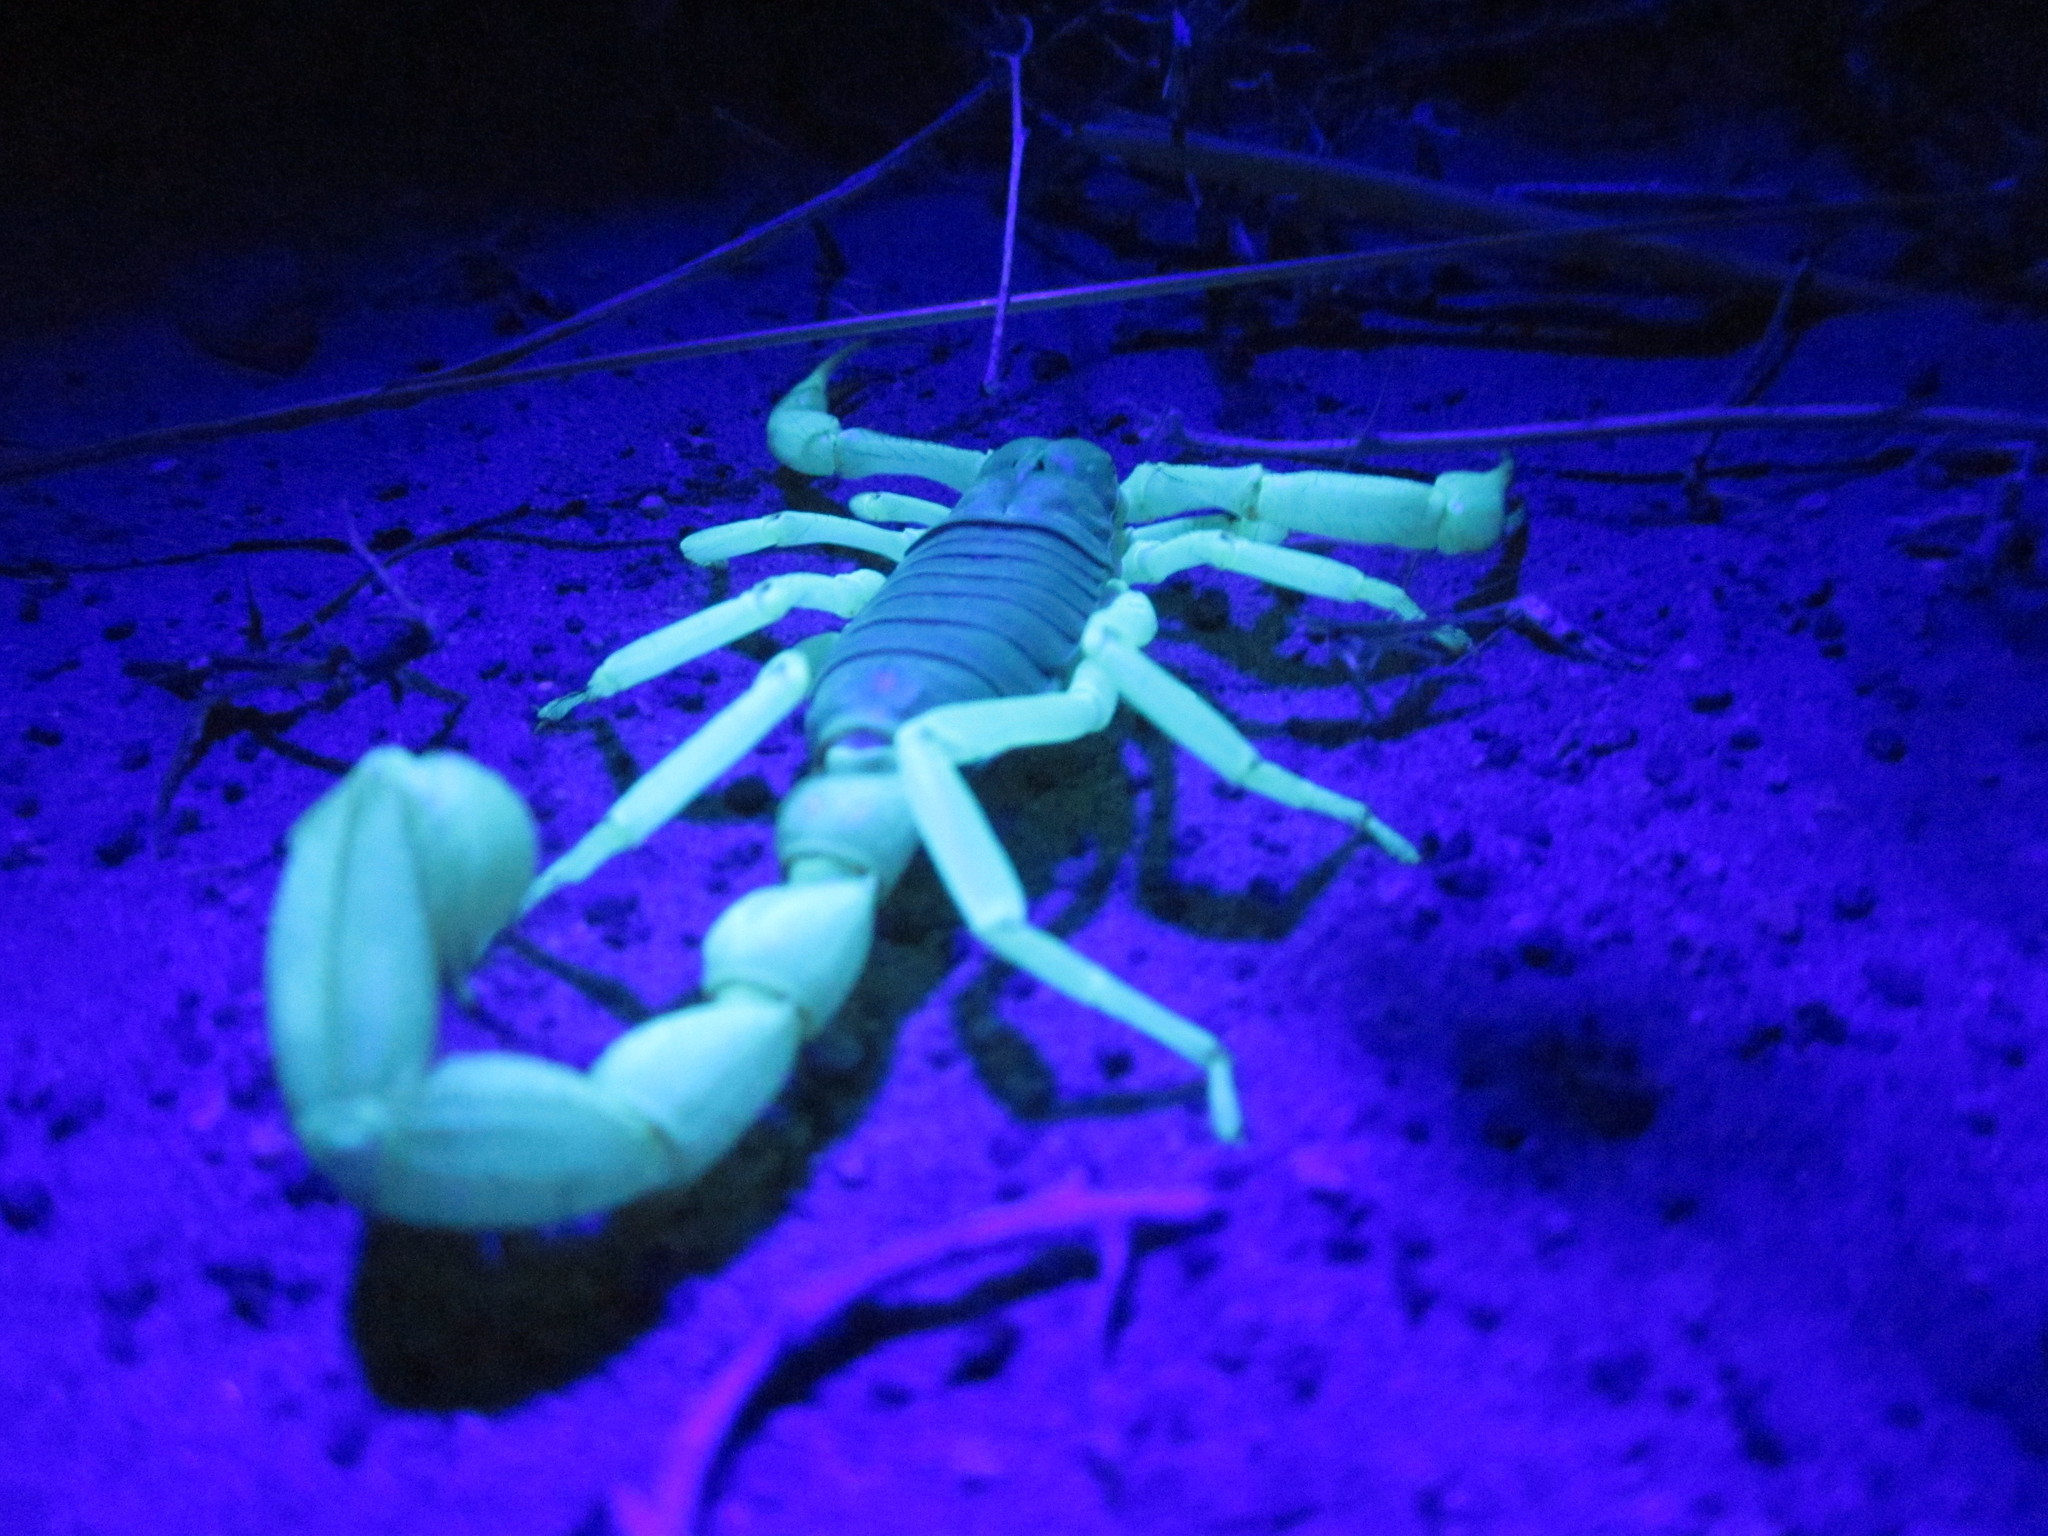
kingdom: Animalia
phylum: Arthropoda
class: Arachnida
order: Scorpiones
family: Hadruridae
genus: Hadrurus
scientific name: Hadrurus spadix
